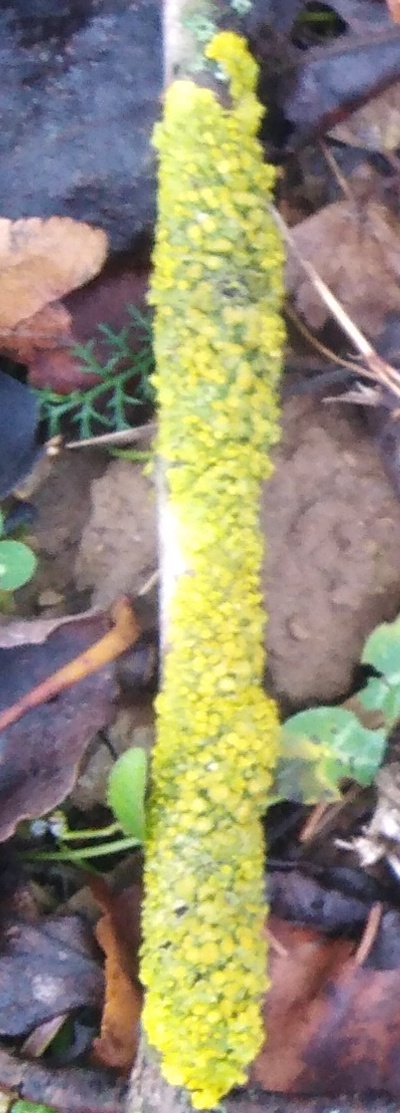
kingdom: Fungi
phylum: Ascomycota
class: Lecanoromycetes
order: Teloschistales
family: Teloschistaceae
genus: Xanthoria
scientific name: Xanthoria parietina
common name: Common orange lichen
